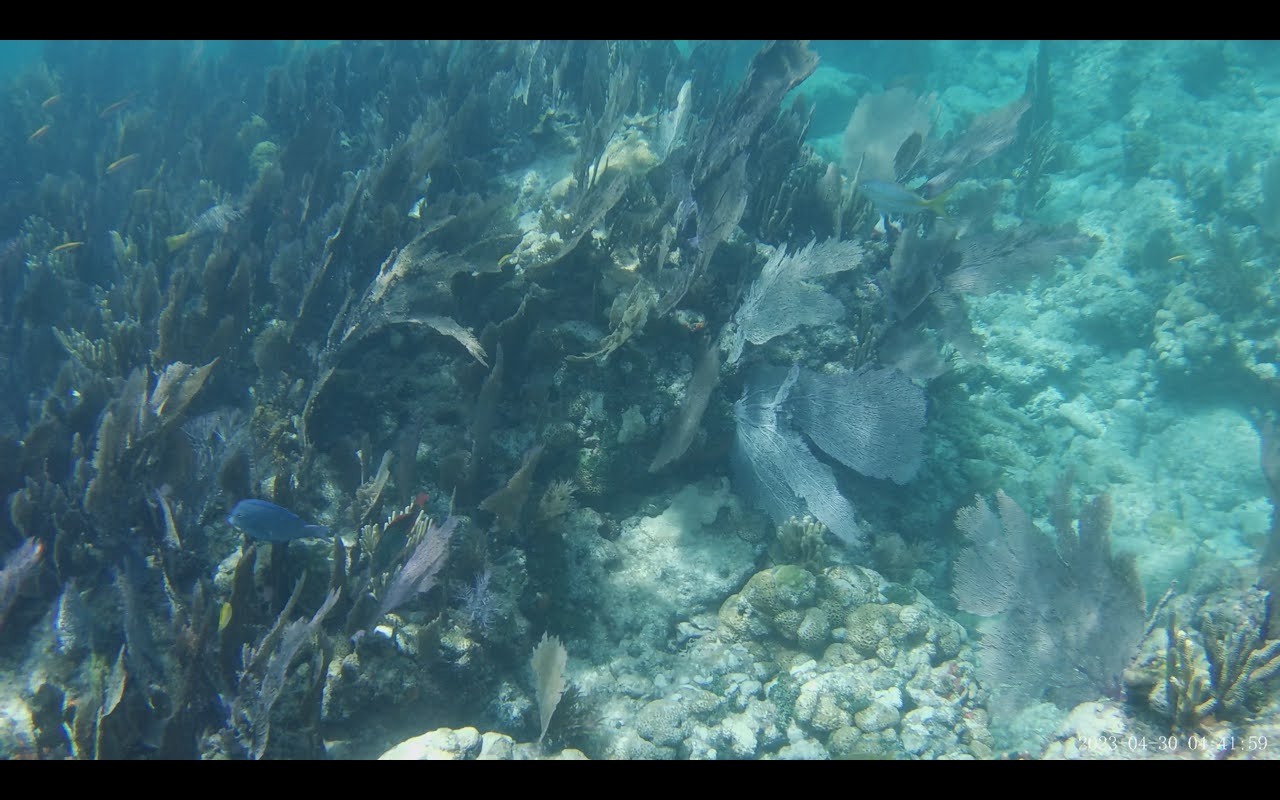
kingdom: Animalia
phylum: Chordata
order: Perciformes
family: Acanthuridae
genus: Acanthurus
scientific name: Acanthurus coeruleus
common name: Blue tang
